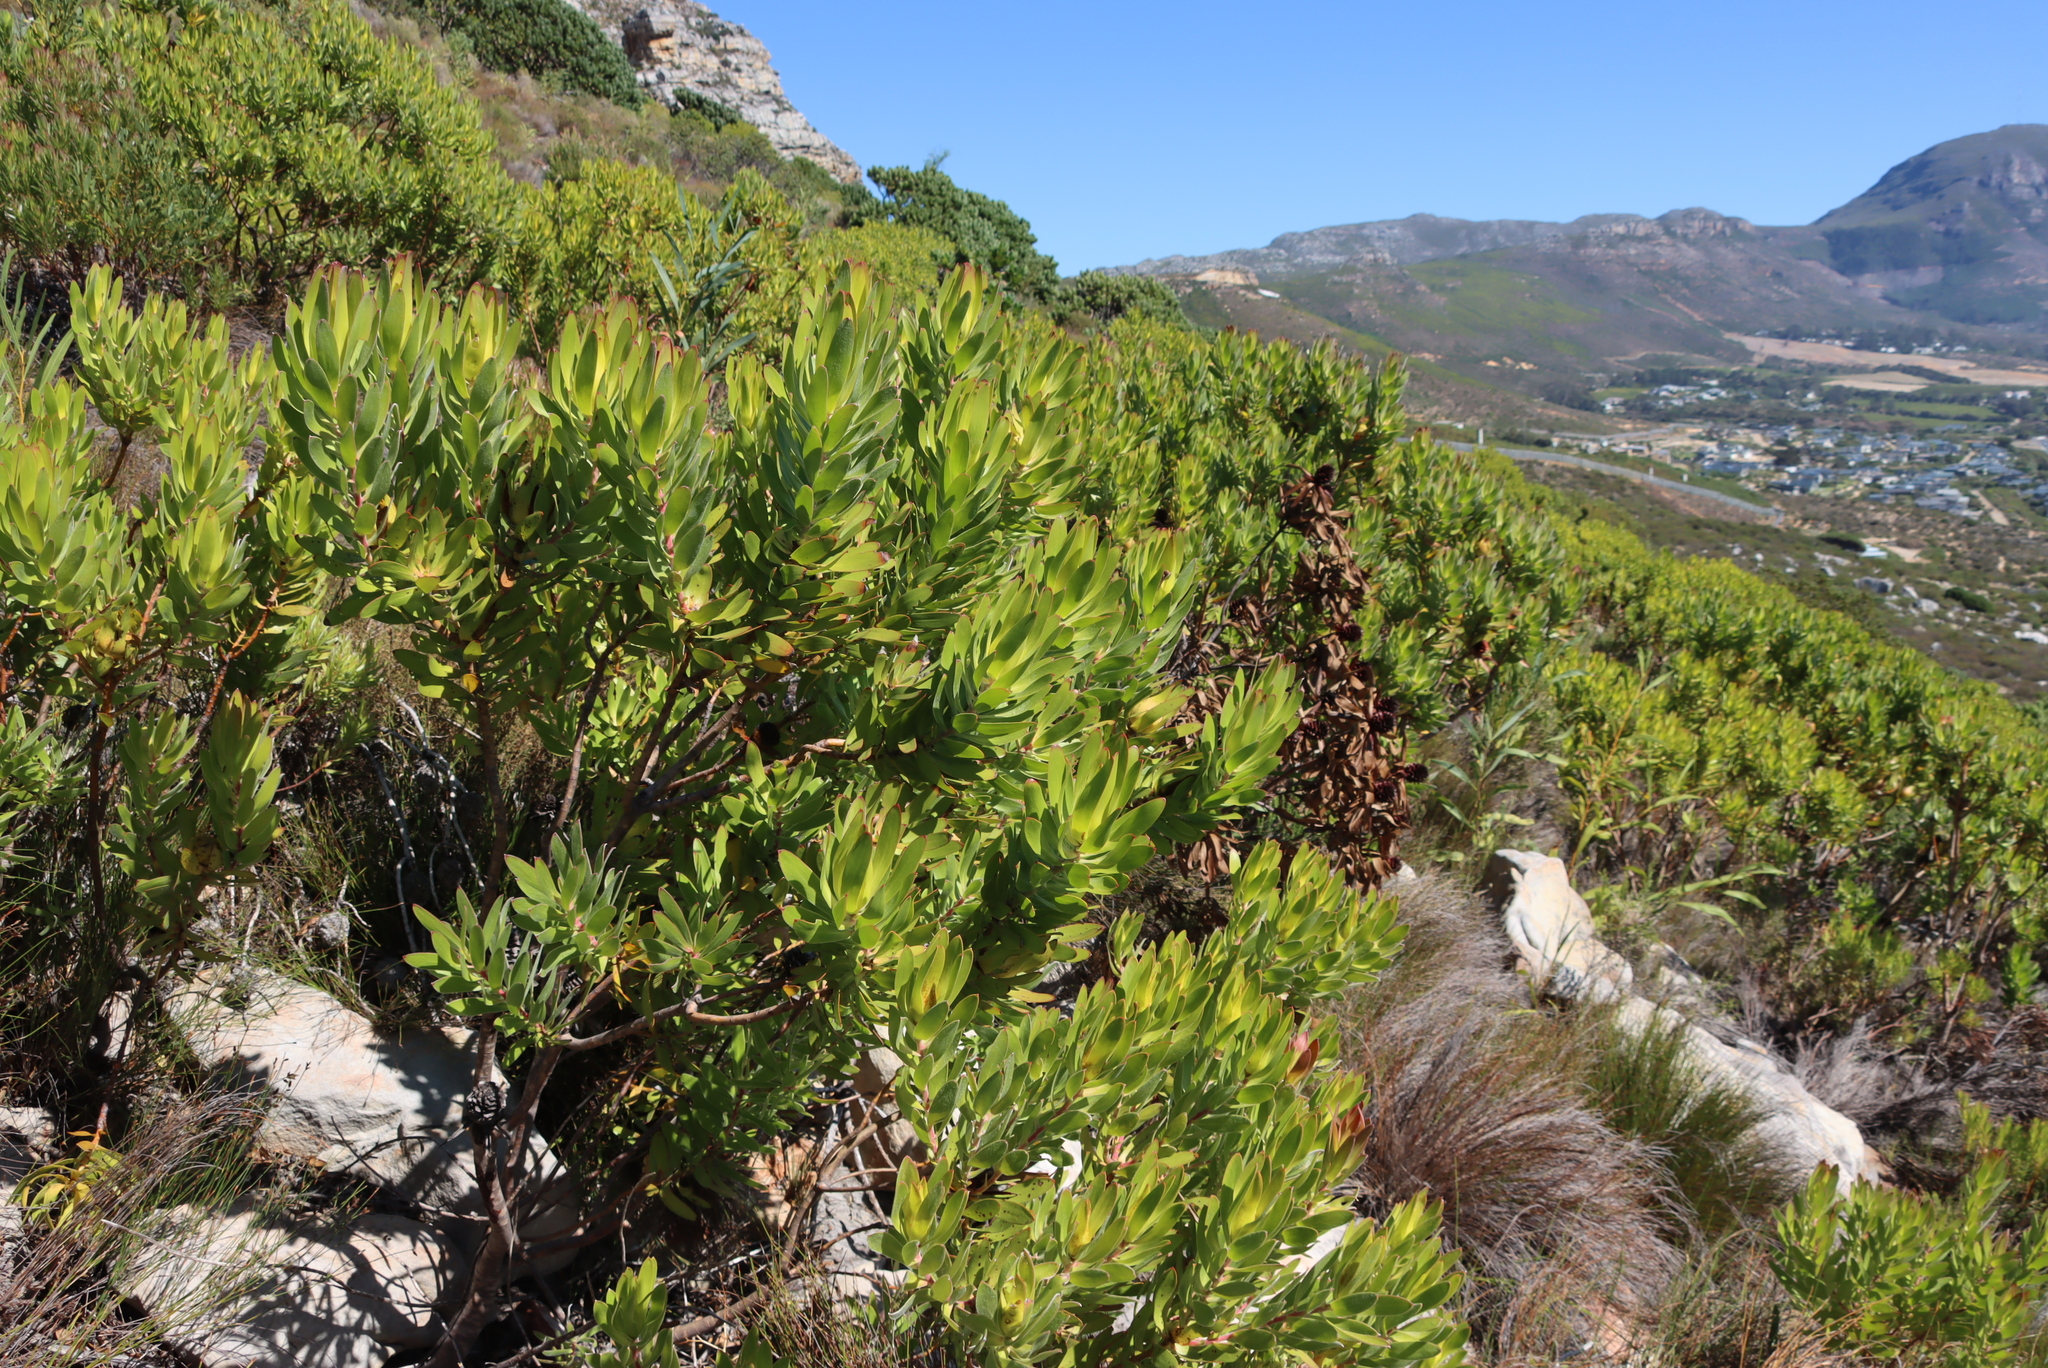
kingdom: Plantae
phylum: Tracheophyta
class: Magnoliopsida
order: Proteales
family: Proteaceae
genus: Leucadendron
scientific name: Leucadendron laureolum
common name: Golden sunshinebush
